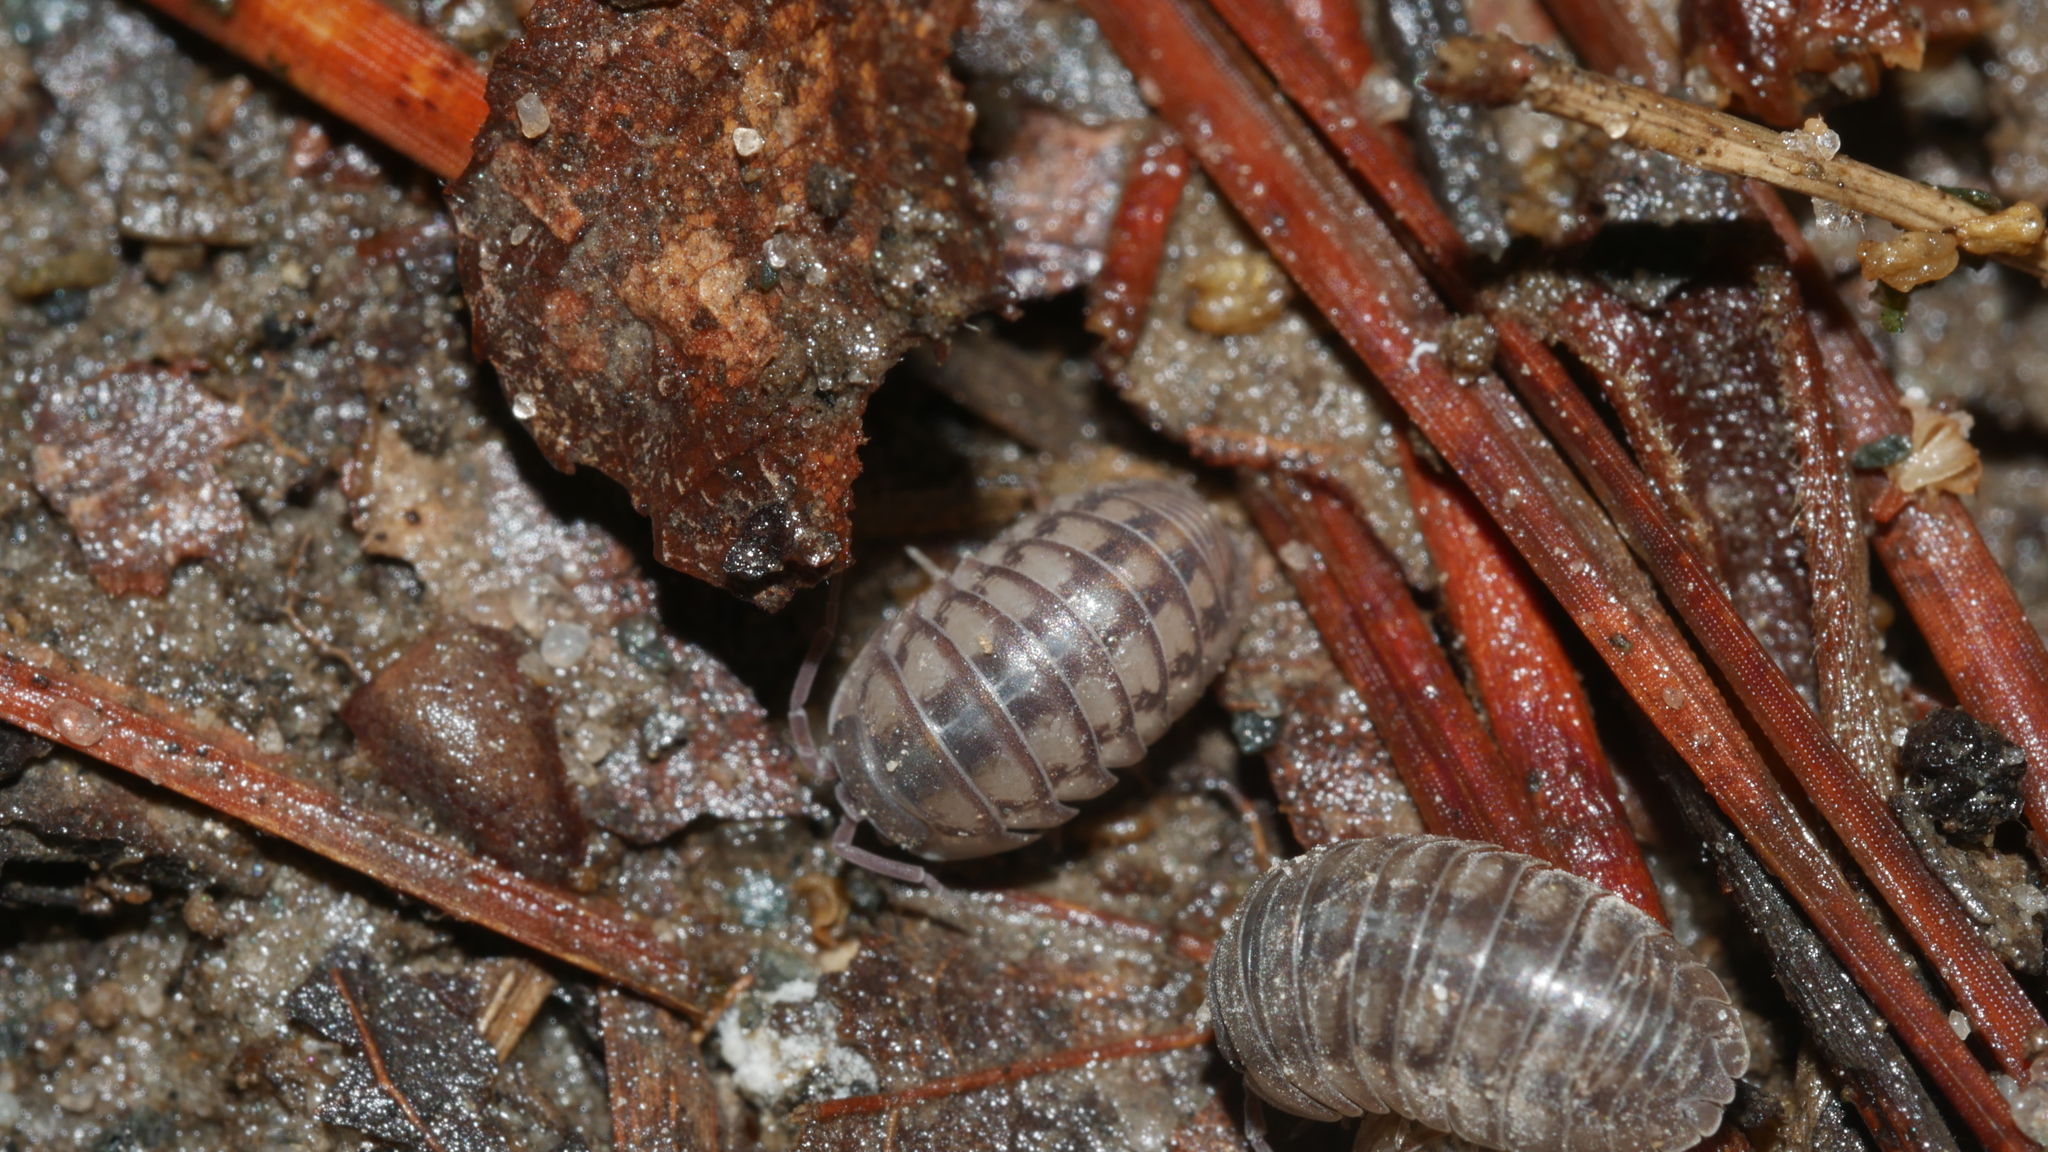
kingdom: Animalia
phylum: Arthropoda
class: Malacostraca
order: Isopoda
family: Armadillidiidae
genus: Armadillidium
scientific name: Armadillidium nasatum
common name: Isopod
